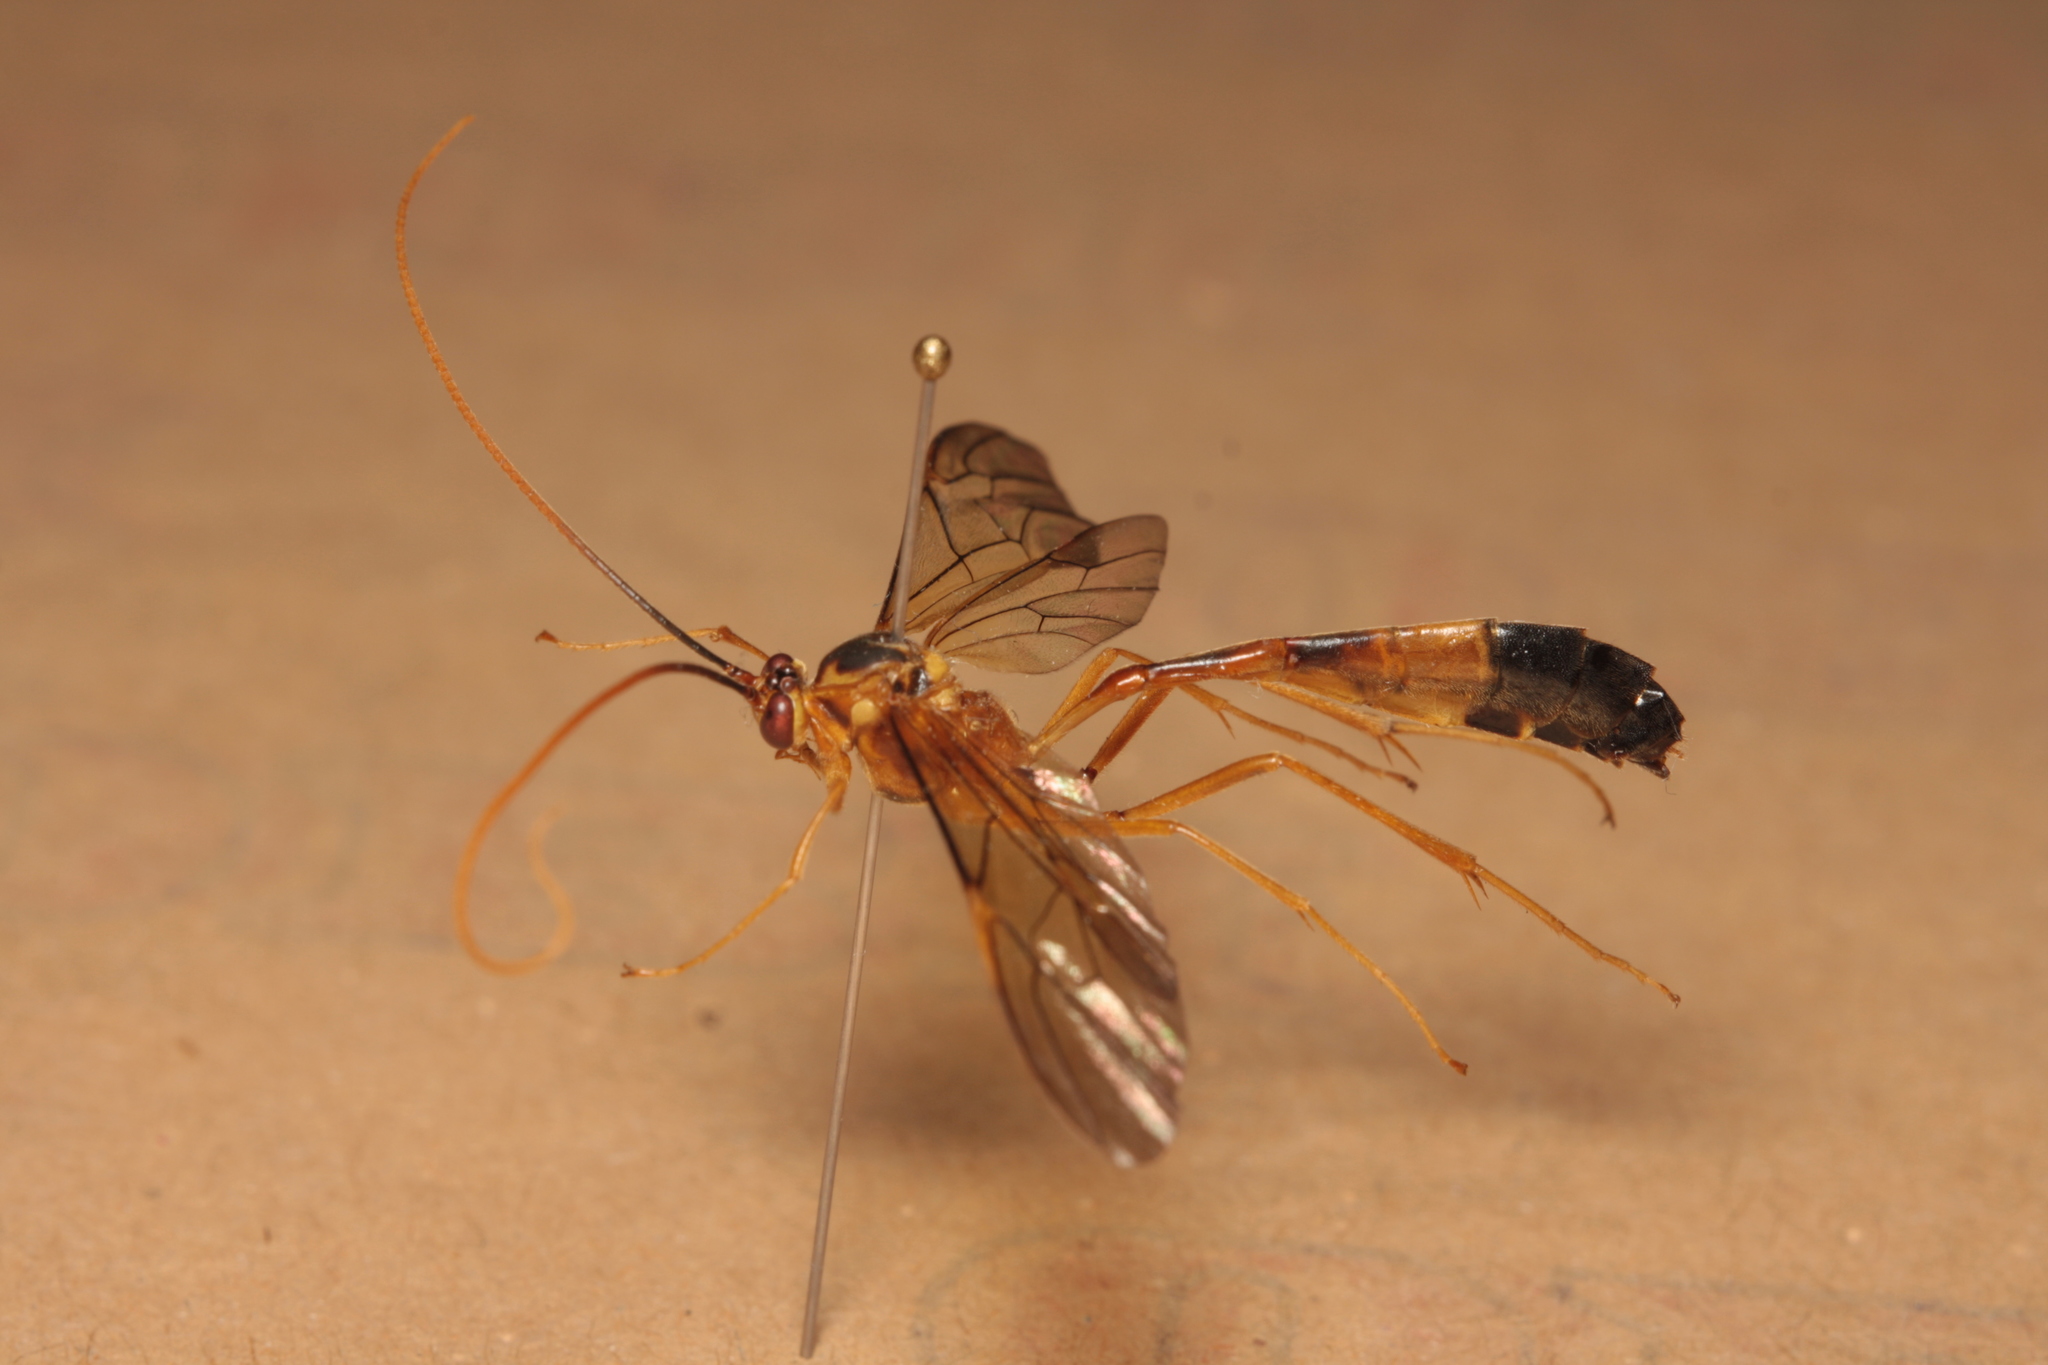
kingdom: Animalia
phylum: Arthropoda
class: Insecta
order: Hymenoptera
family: Ichneumonidae
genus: Stauropoctonus
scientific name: Stauropoctonus bombycivorus
